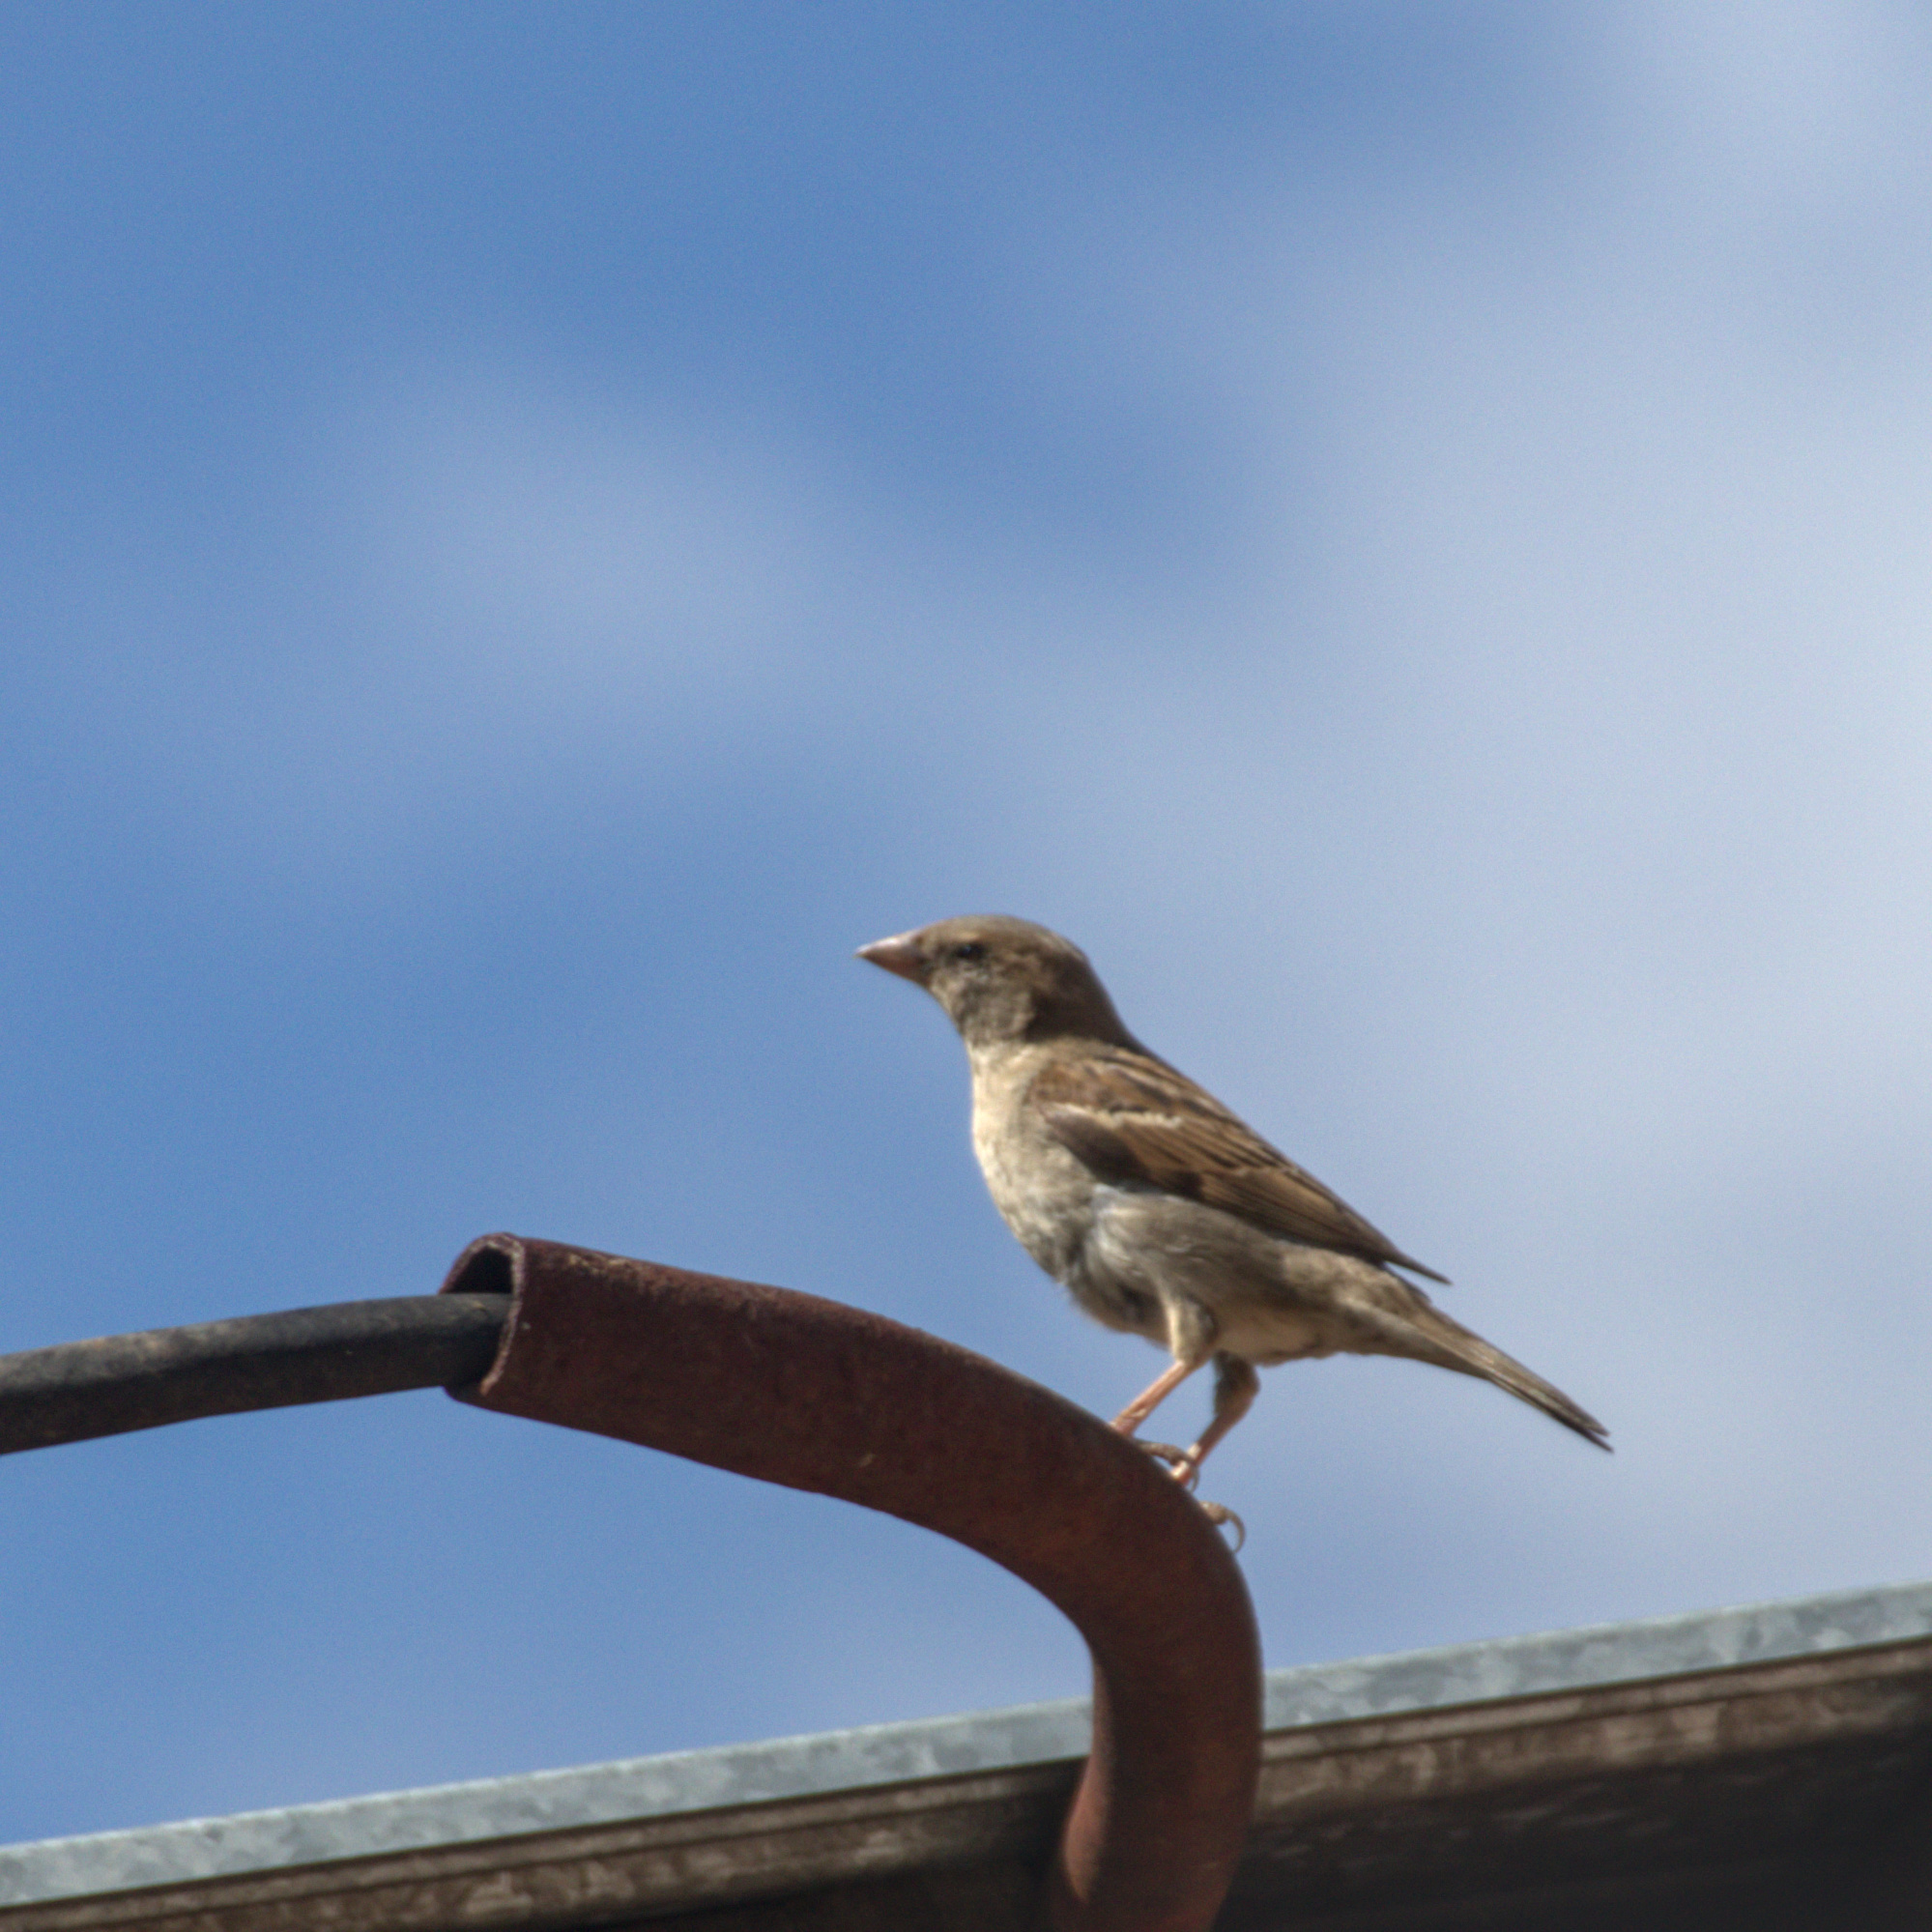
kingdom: Animalia
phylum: Chordata
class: Aves
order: Passeriformes
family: Passeridae
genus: Passer
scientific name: Passer domesticus
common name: House sparrow
